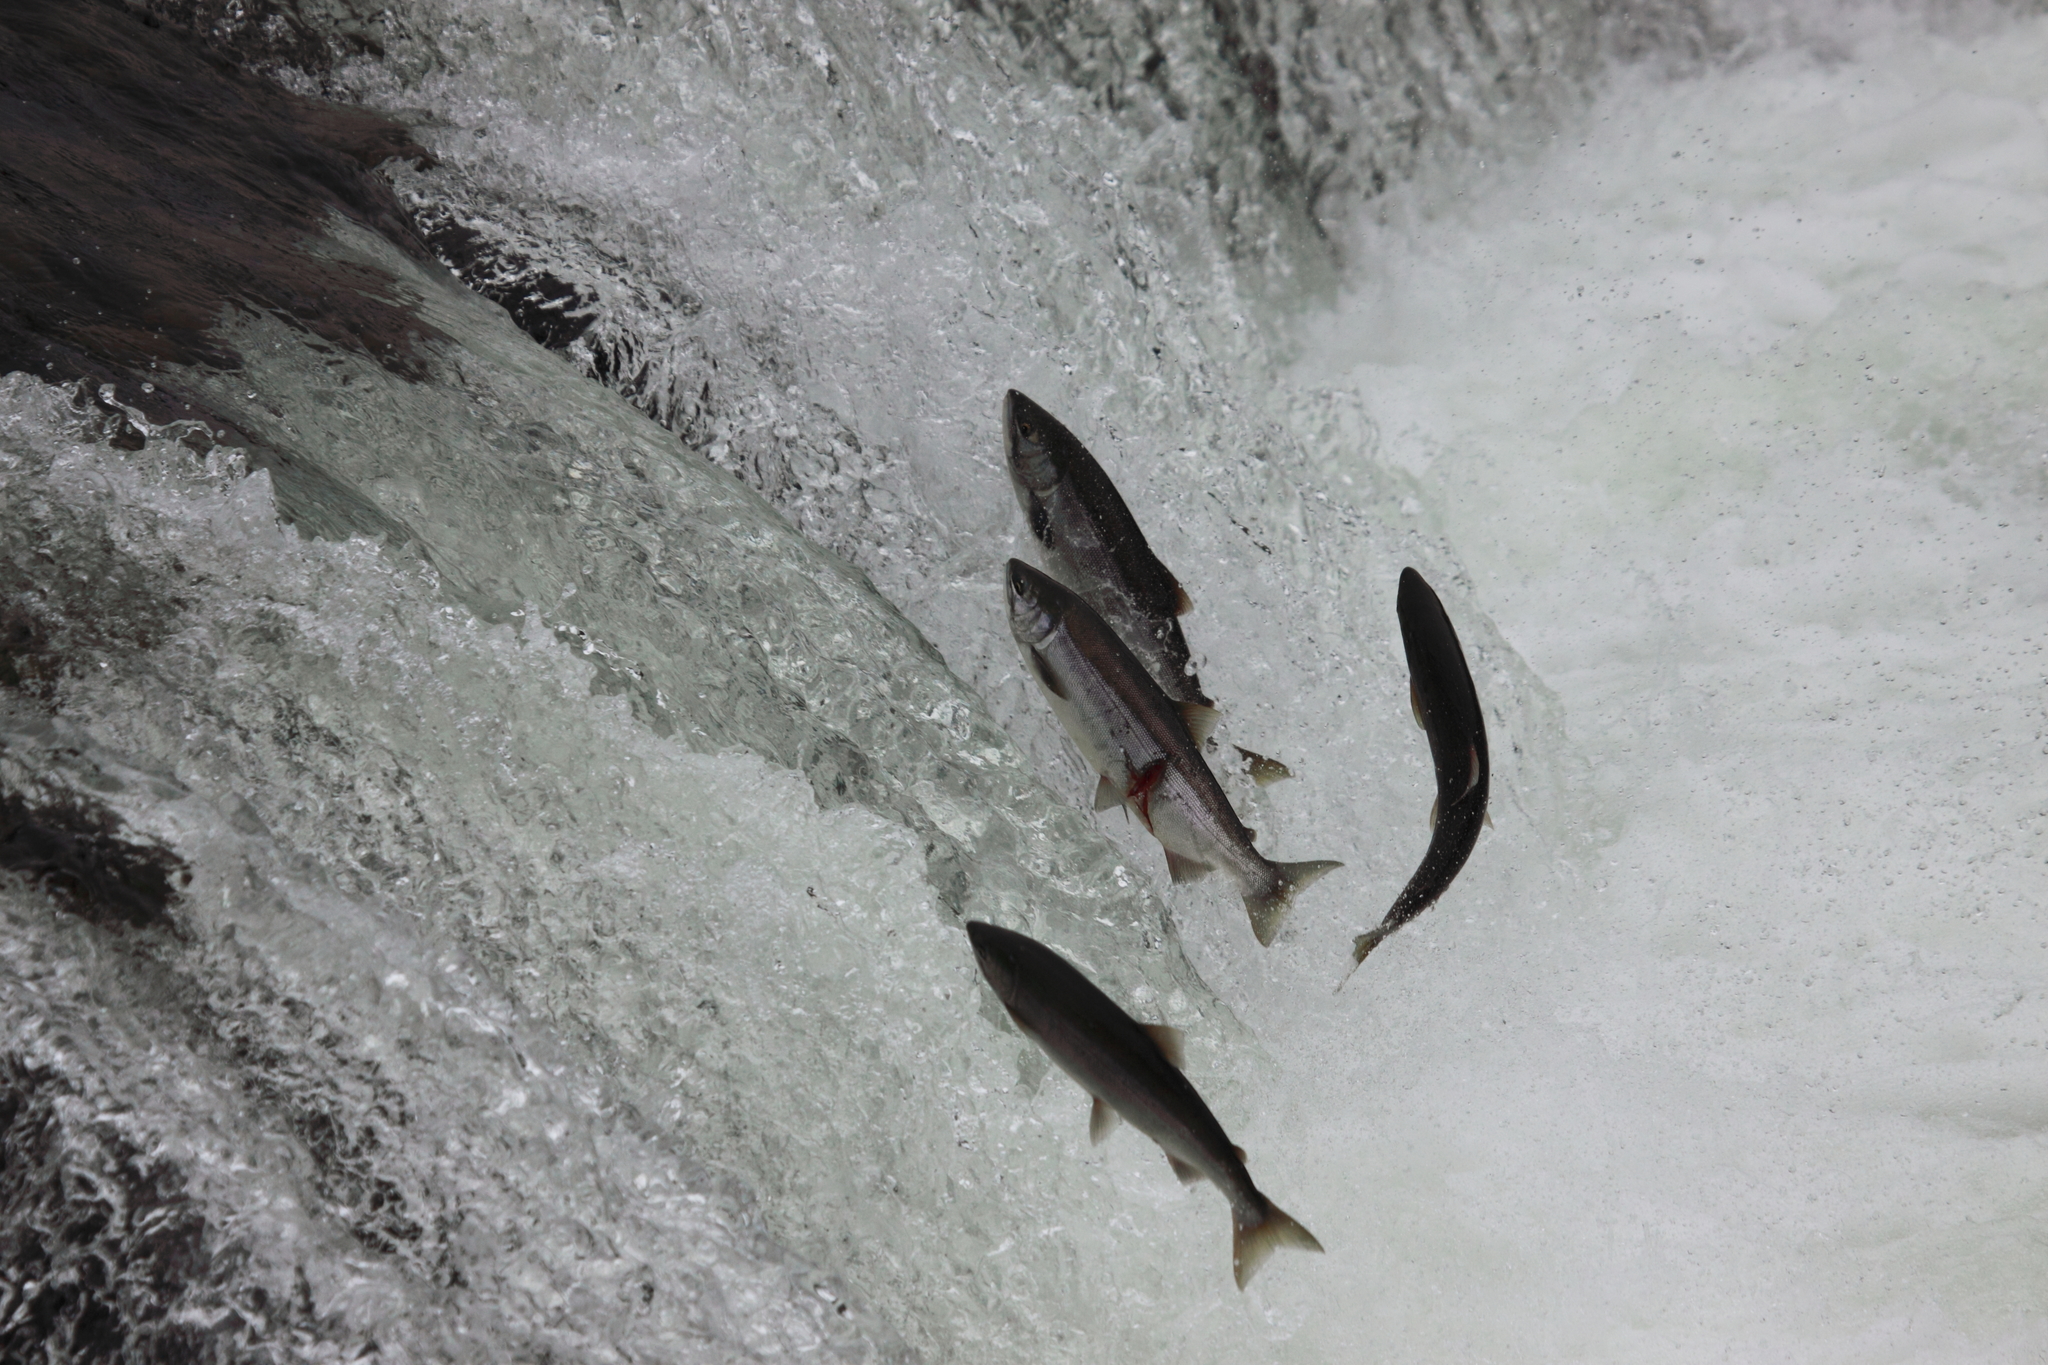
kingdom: Animalia
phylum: Chordata
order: Salmoniformes
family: Salmonidae
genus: Oncorhynchus
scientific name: Oncorhynchus nerka
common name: Sockeye salmon
